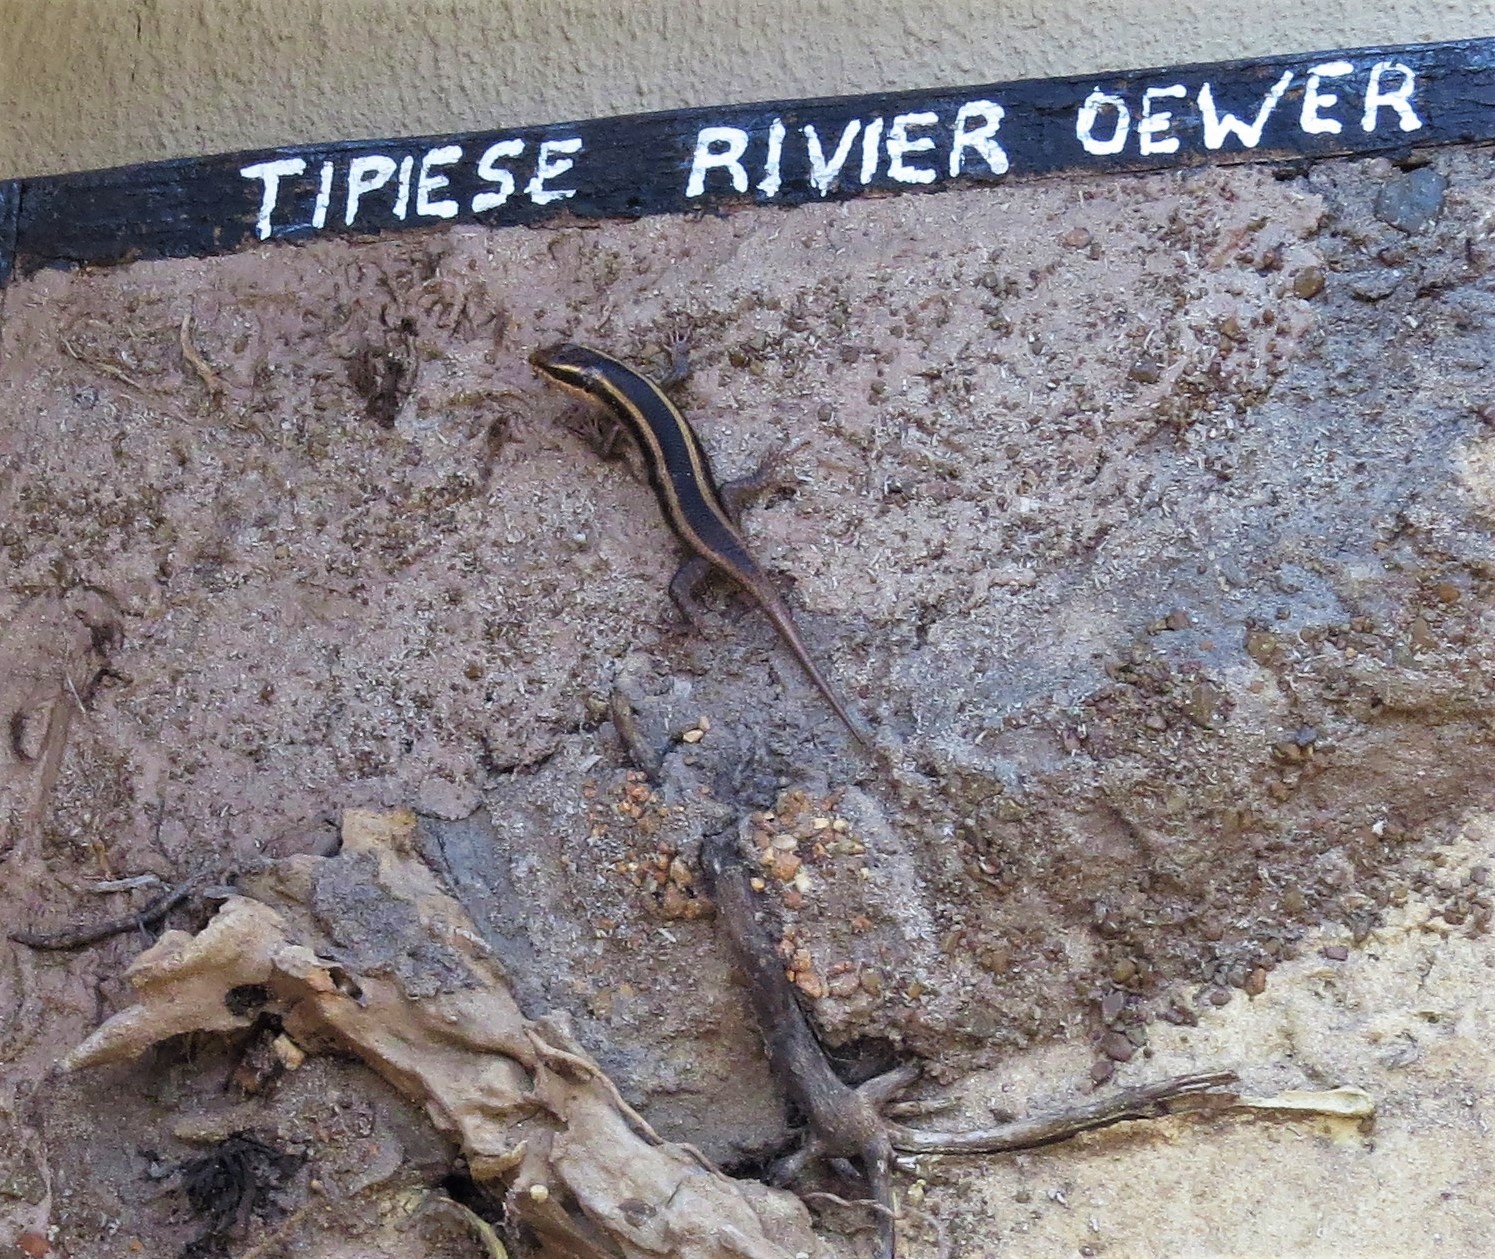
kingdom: Animalia
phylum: Chordata
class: Squamata
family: Scincidae
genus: Trachylepis
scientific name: Trachylepis striata
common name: African striped mabuya
